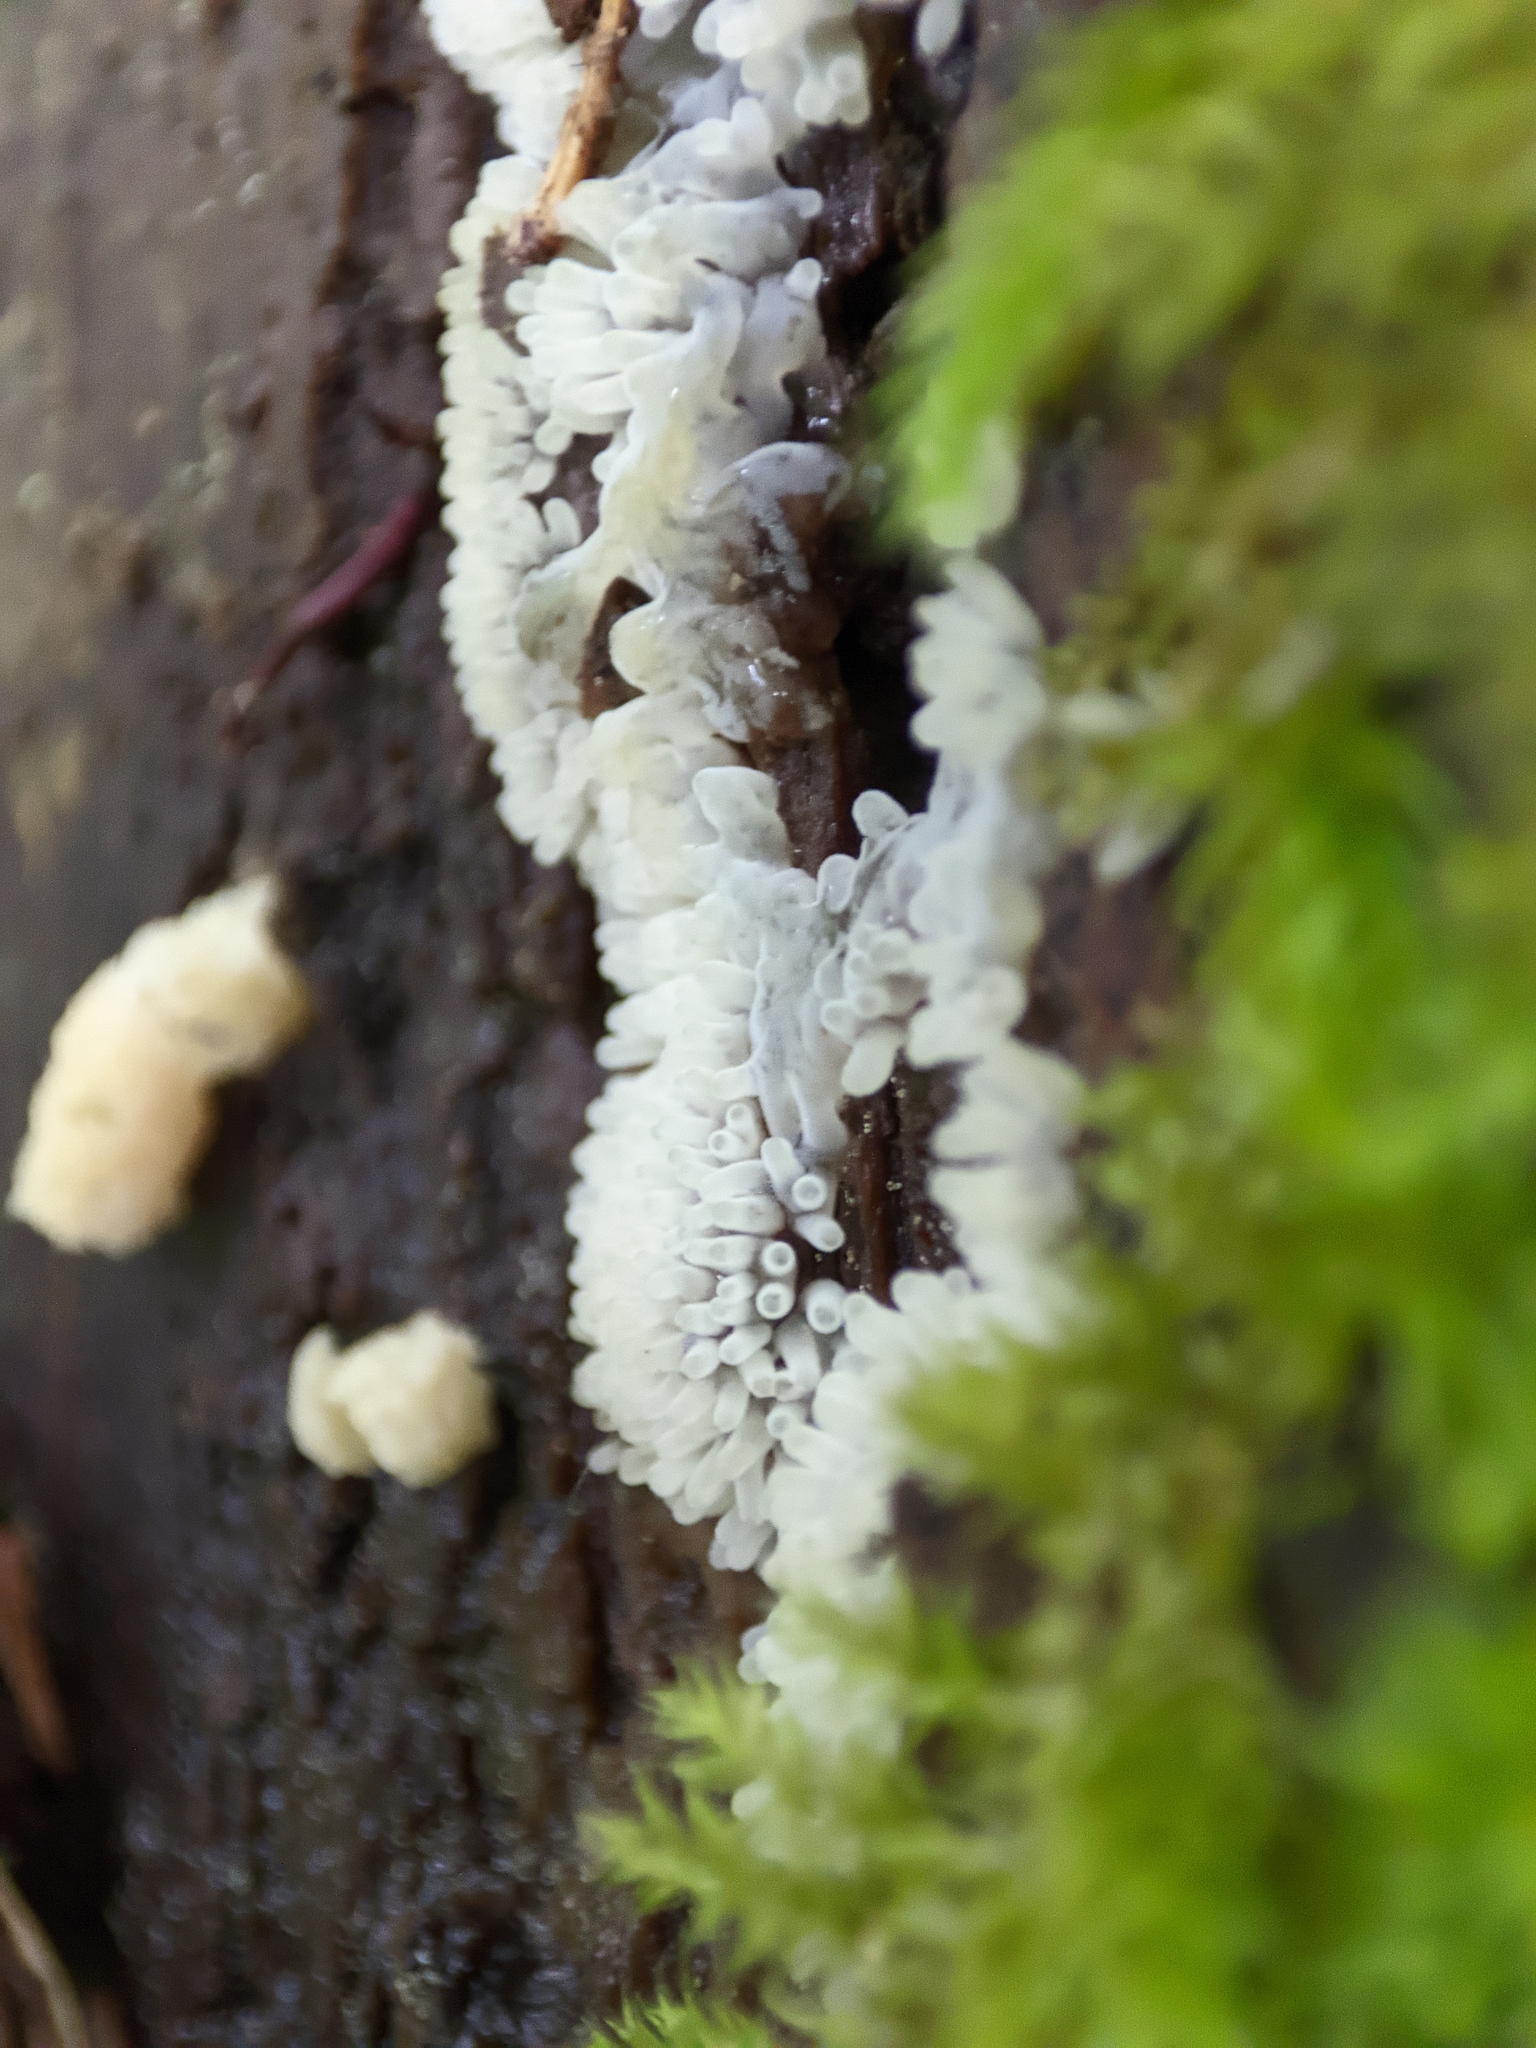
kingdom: Protozoa
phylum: Mycetozoa
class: Protosteliomycetes
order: Ceratiomyxales
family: Ceratiomyxaceae
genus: Ceratiomyxa
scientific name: Ceratiomyxa fruticulosa
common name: Honeycomb coral slime mold
